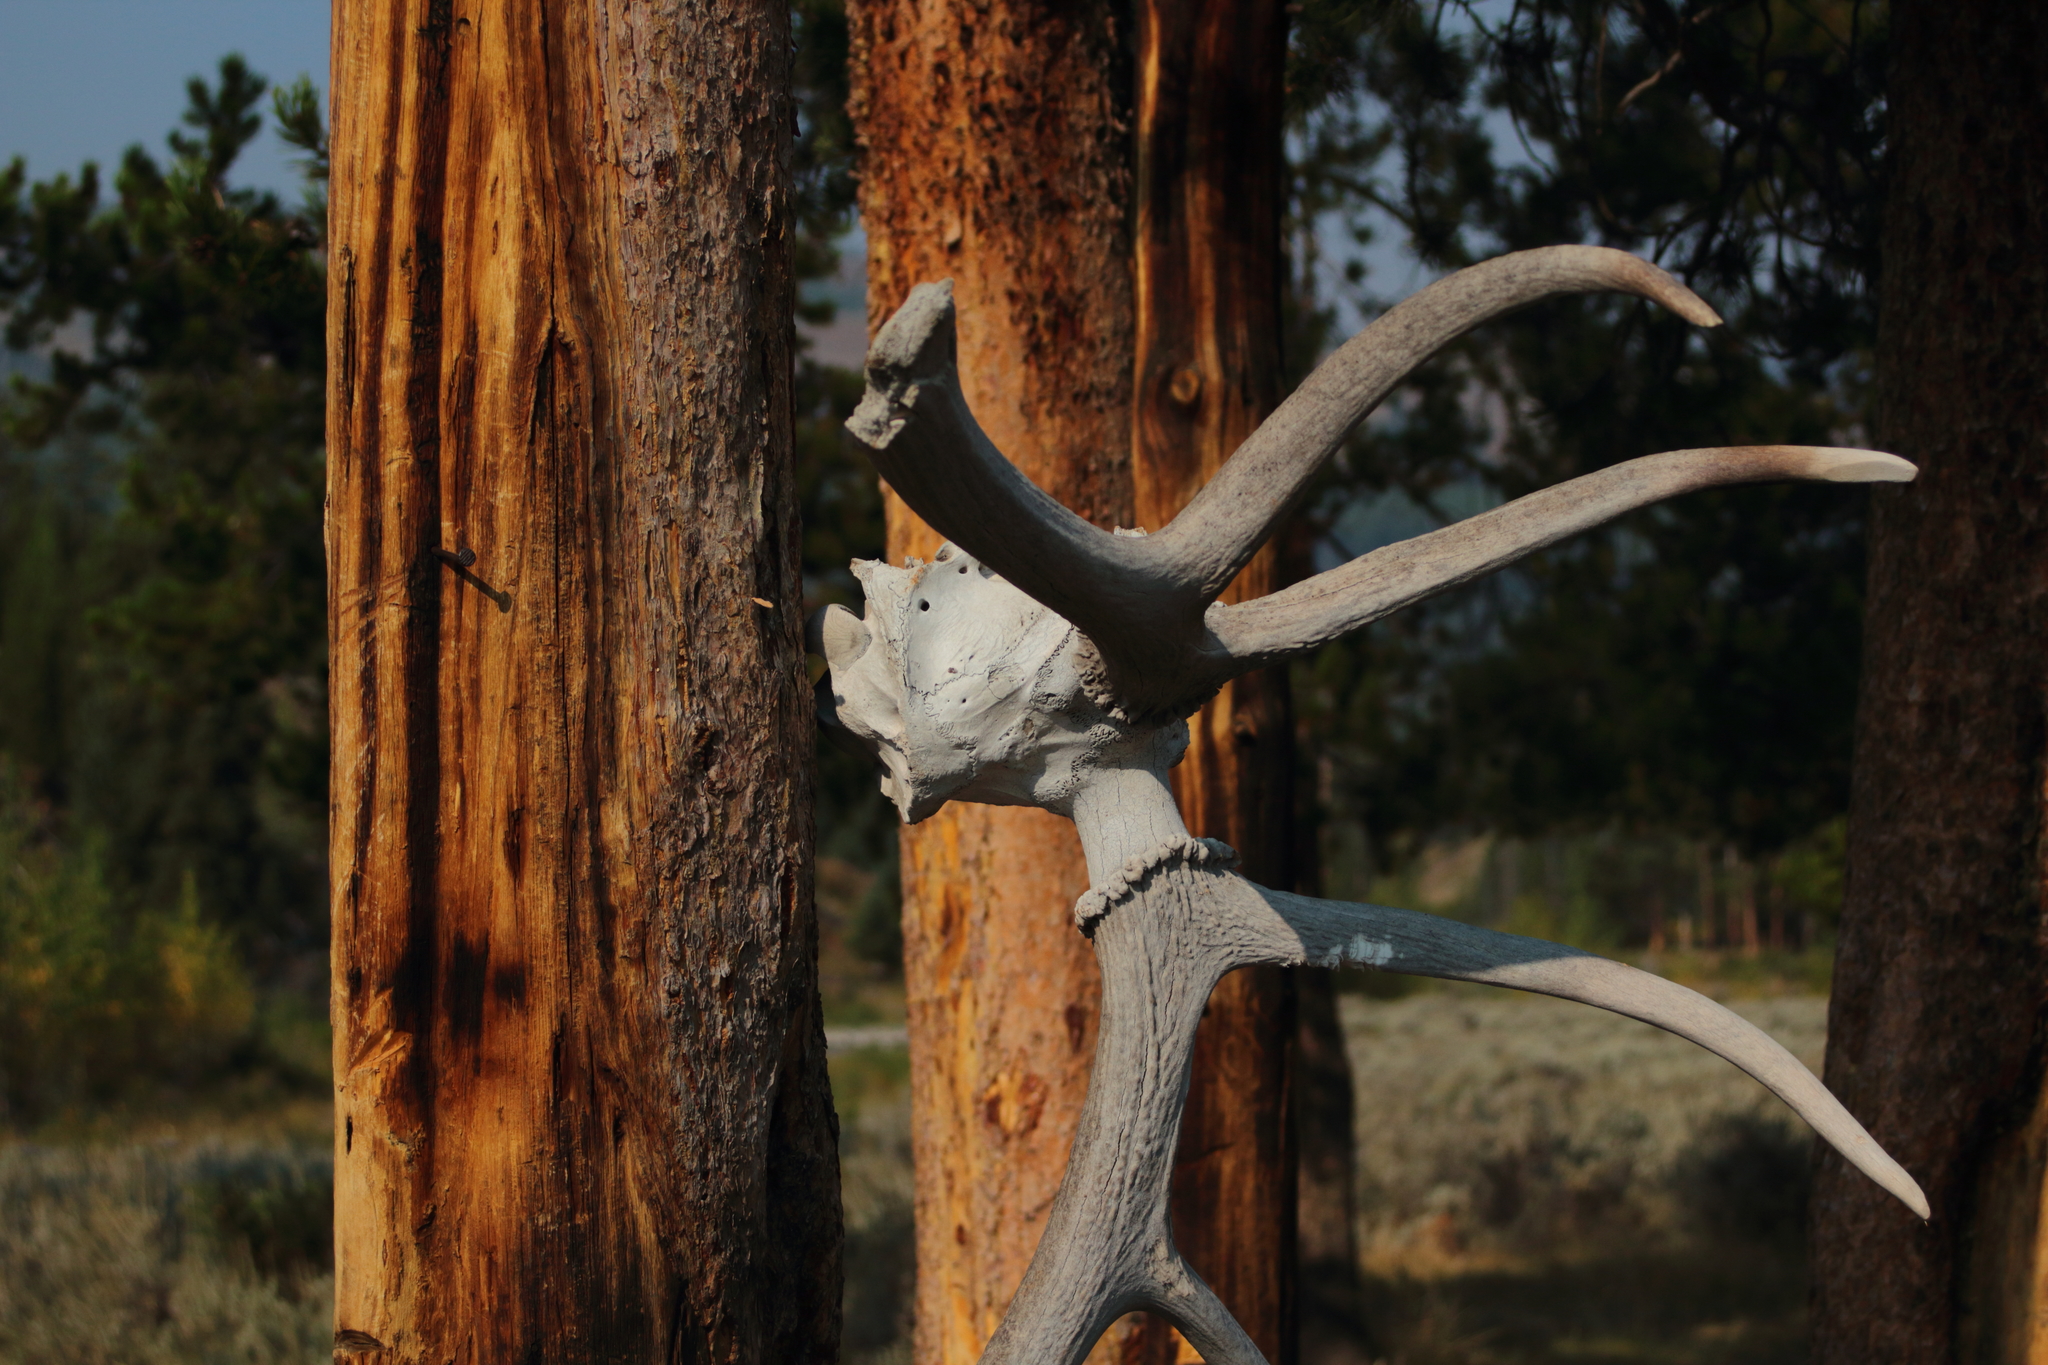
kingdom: Animalia
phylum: Chordata
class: Mammalia
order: Artiodactyla
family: Cervidae
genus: Cervus
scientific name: Cervus elaphus
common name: Red deer
